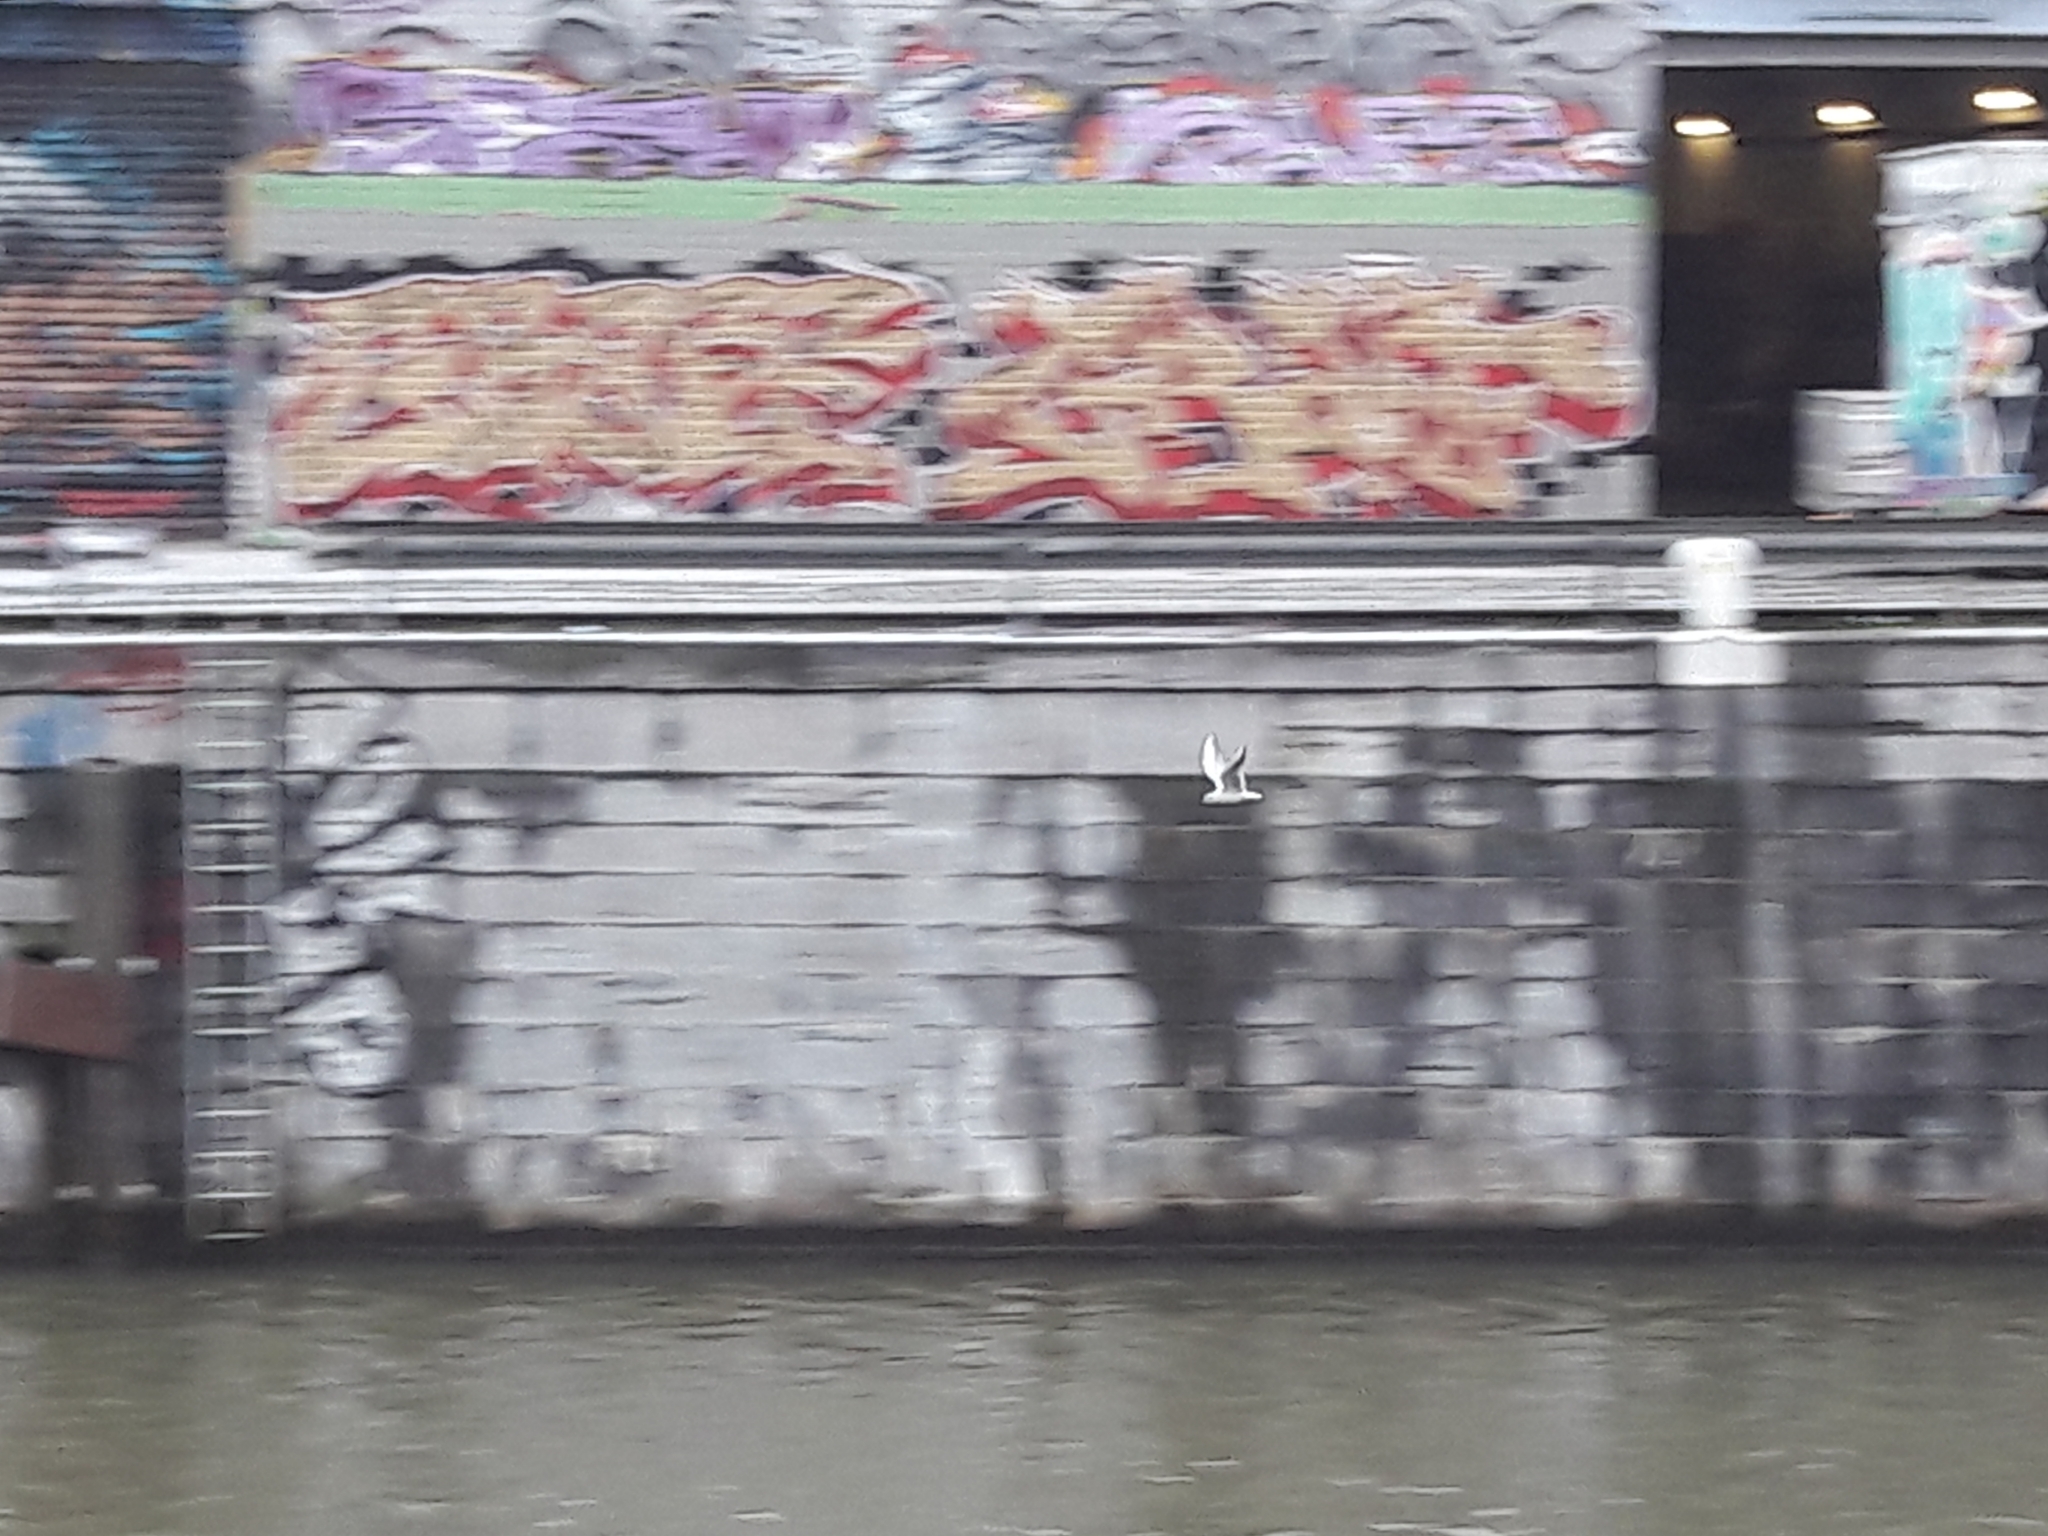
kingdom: Animalia
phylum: Chordata
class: Aves
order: Charadriiformes
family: Laridae
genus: Chroicocephalus
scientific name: Chroicocephalus ridibundus
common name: Black-headed gull
